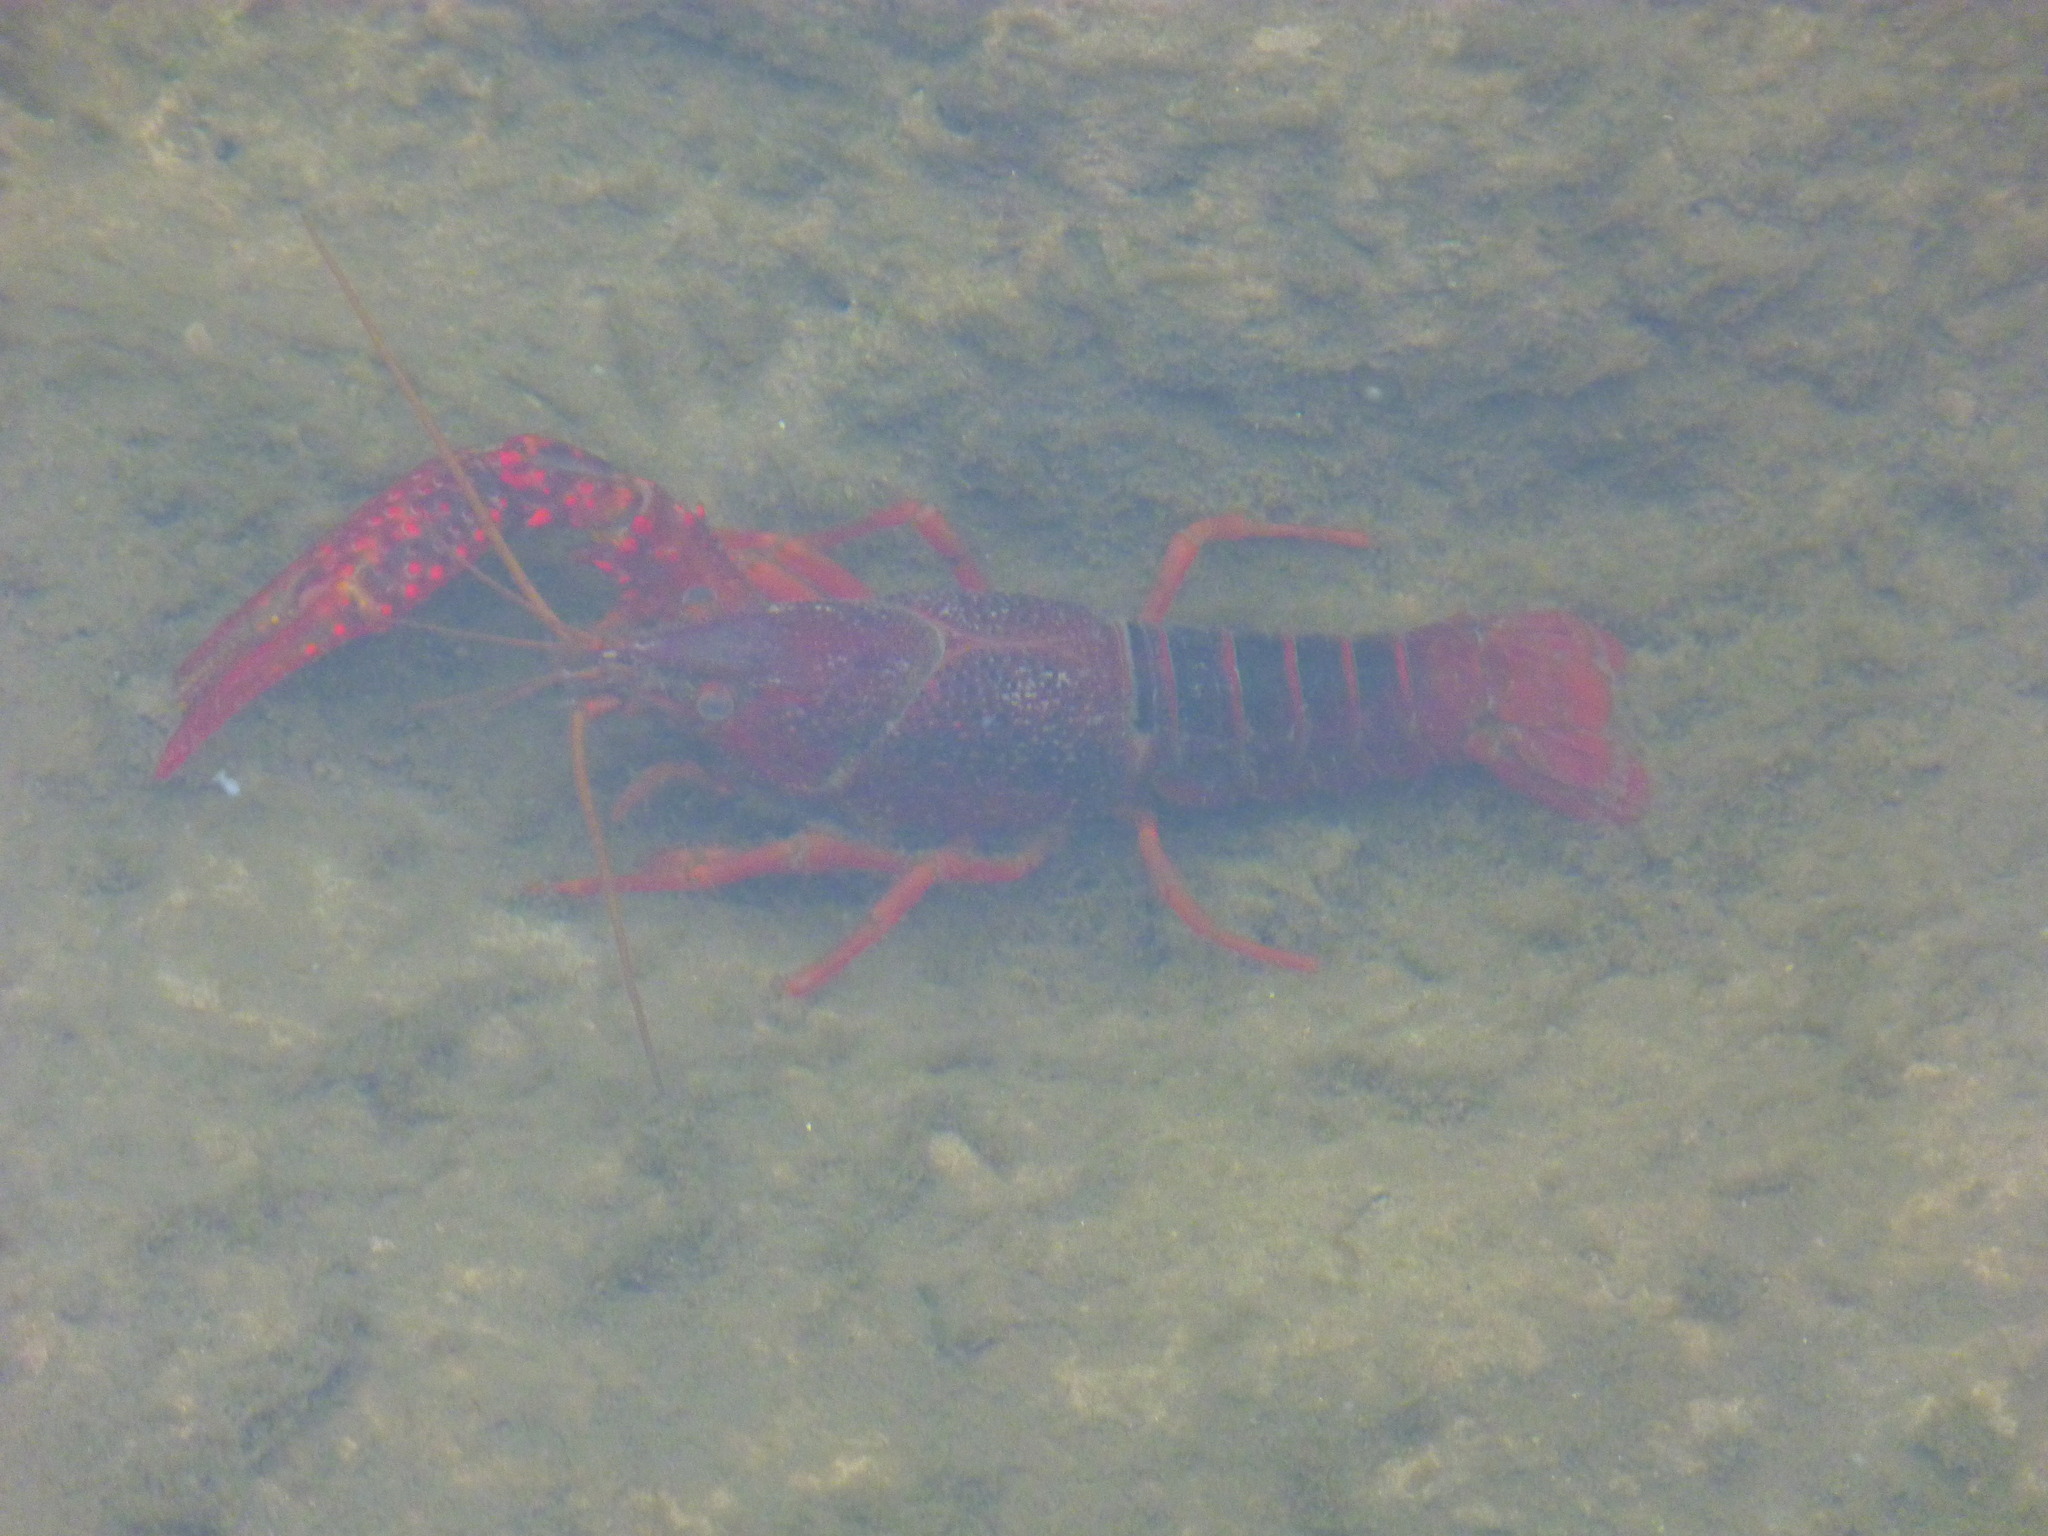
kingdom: Animalia
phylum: Arthropoda
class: Malacostraca
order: Decapoda
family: Cambaridae
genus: Procambarus
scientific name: Procambarus clarkii
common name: Red swamp crayfish
